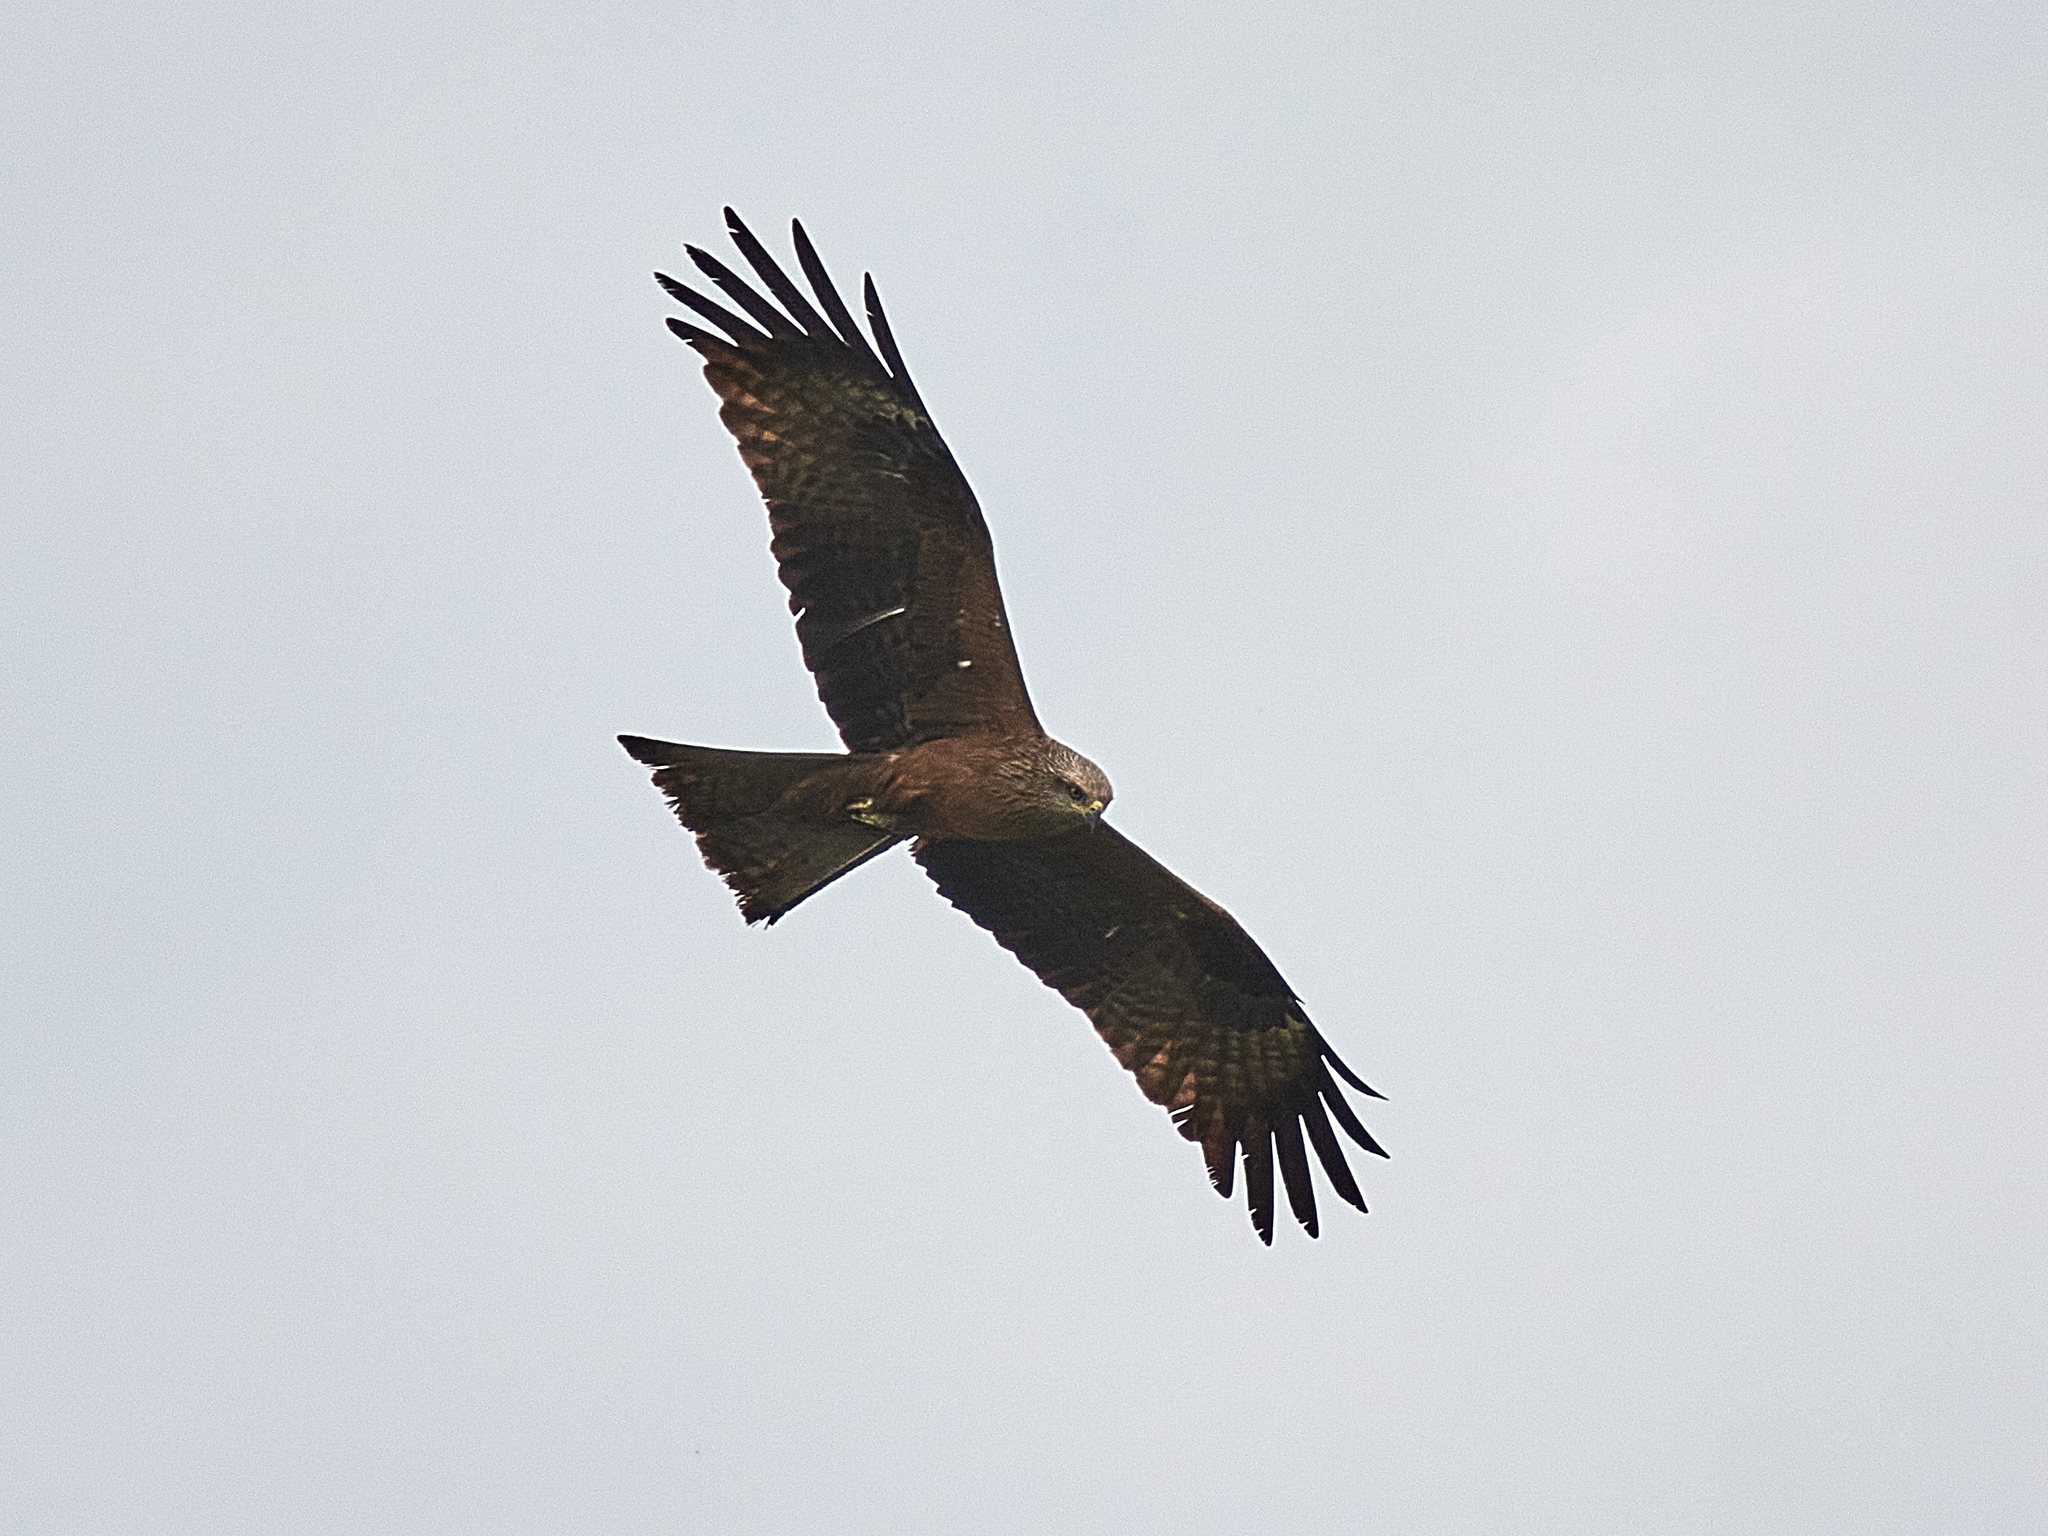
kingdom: Animalia
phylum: Chordata
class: Aves
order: Accipitriformes
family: Accipitridae
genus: Milvus
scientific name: Milvus migrans
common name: Black kite
